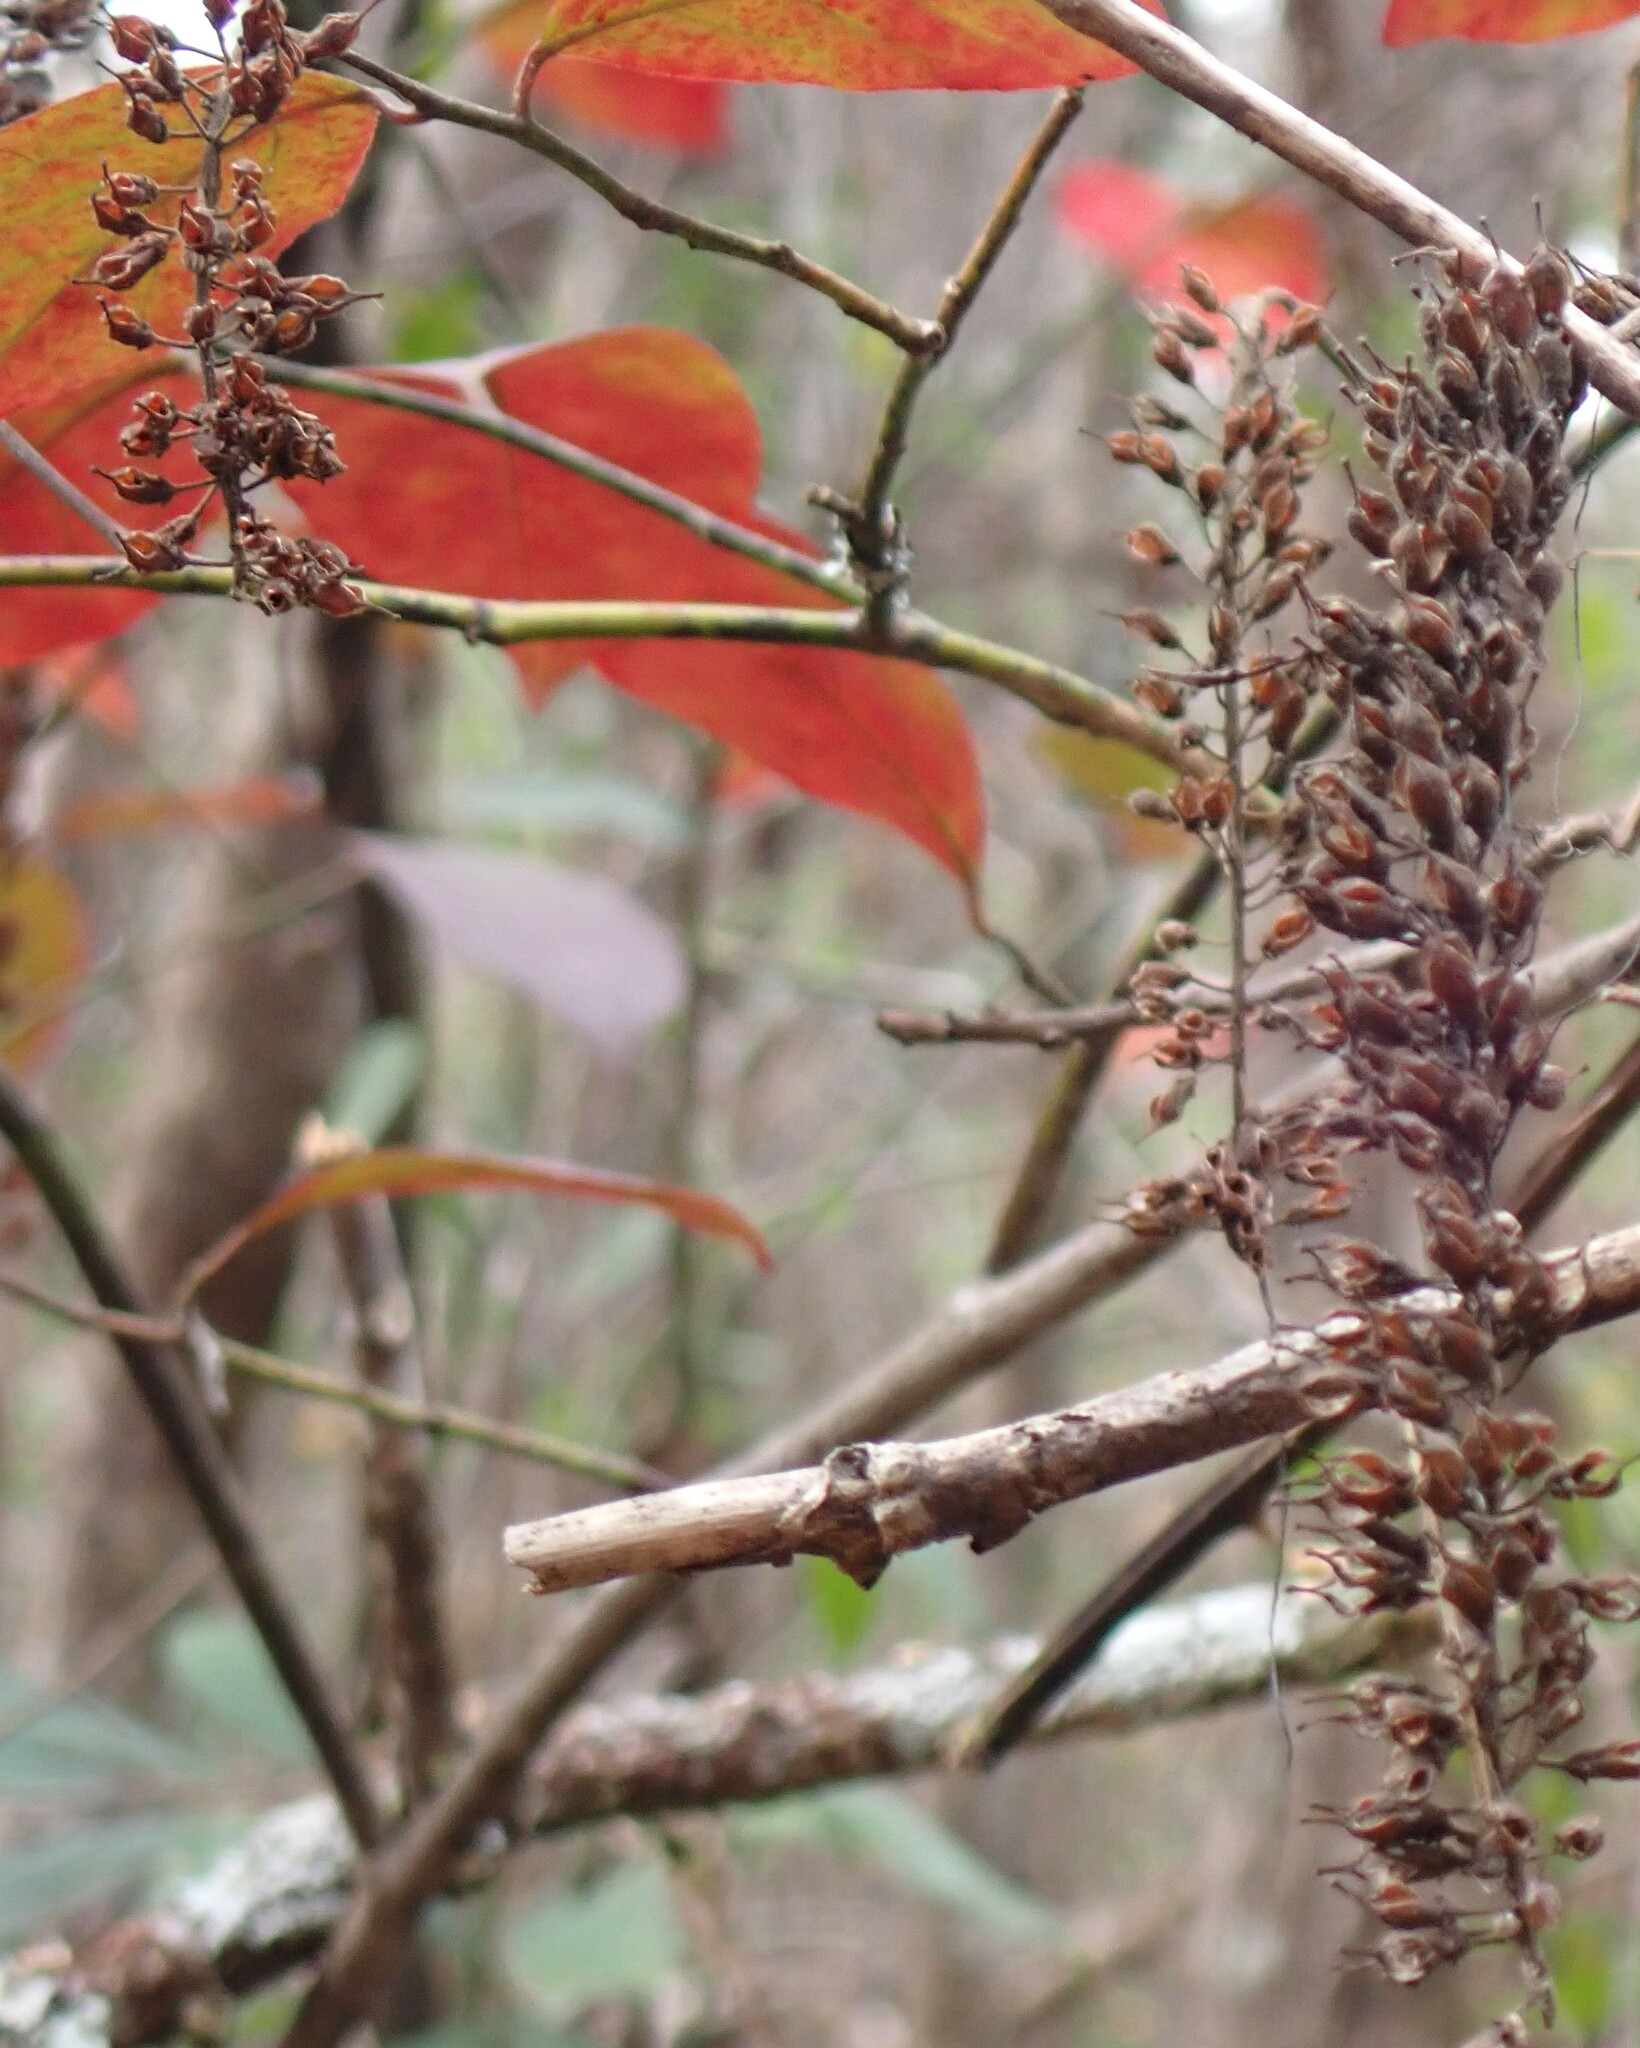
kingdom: Plantae
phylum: Tracheophyta
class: Magnoliopsida
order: Saxifragales
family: Iteaceae
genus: Itea
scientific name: Itea virginica
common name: Sweetspire
